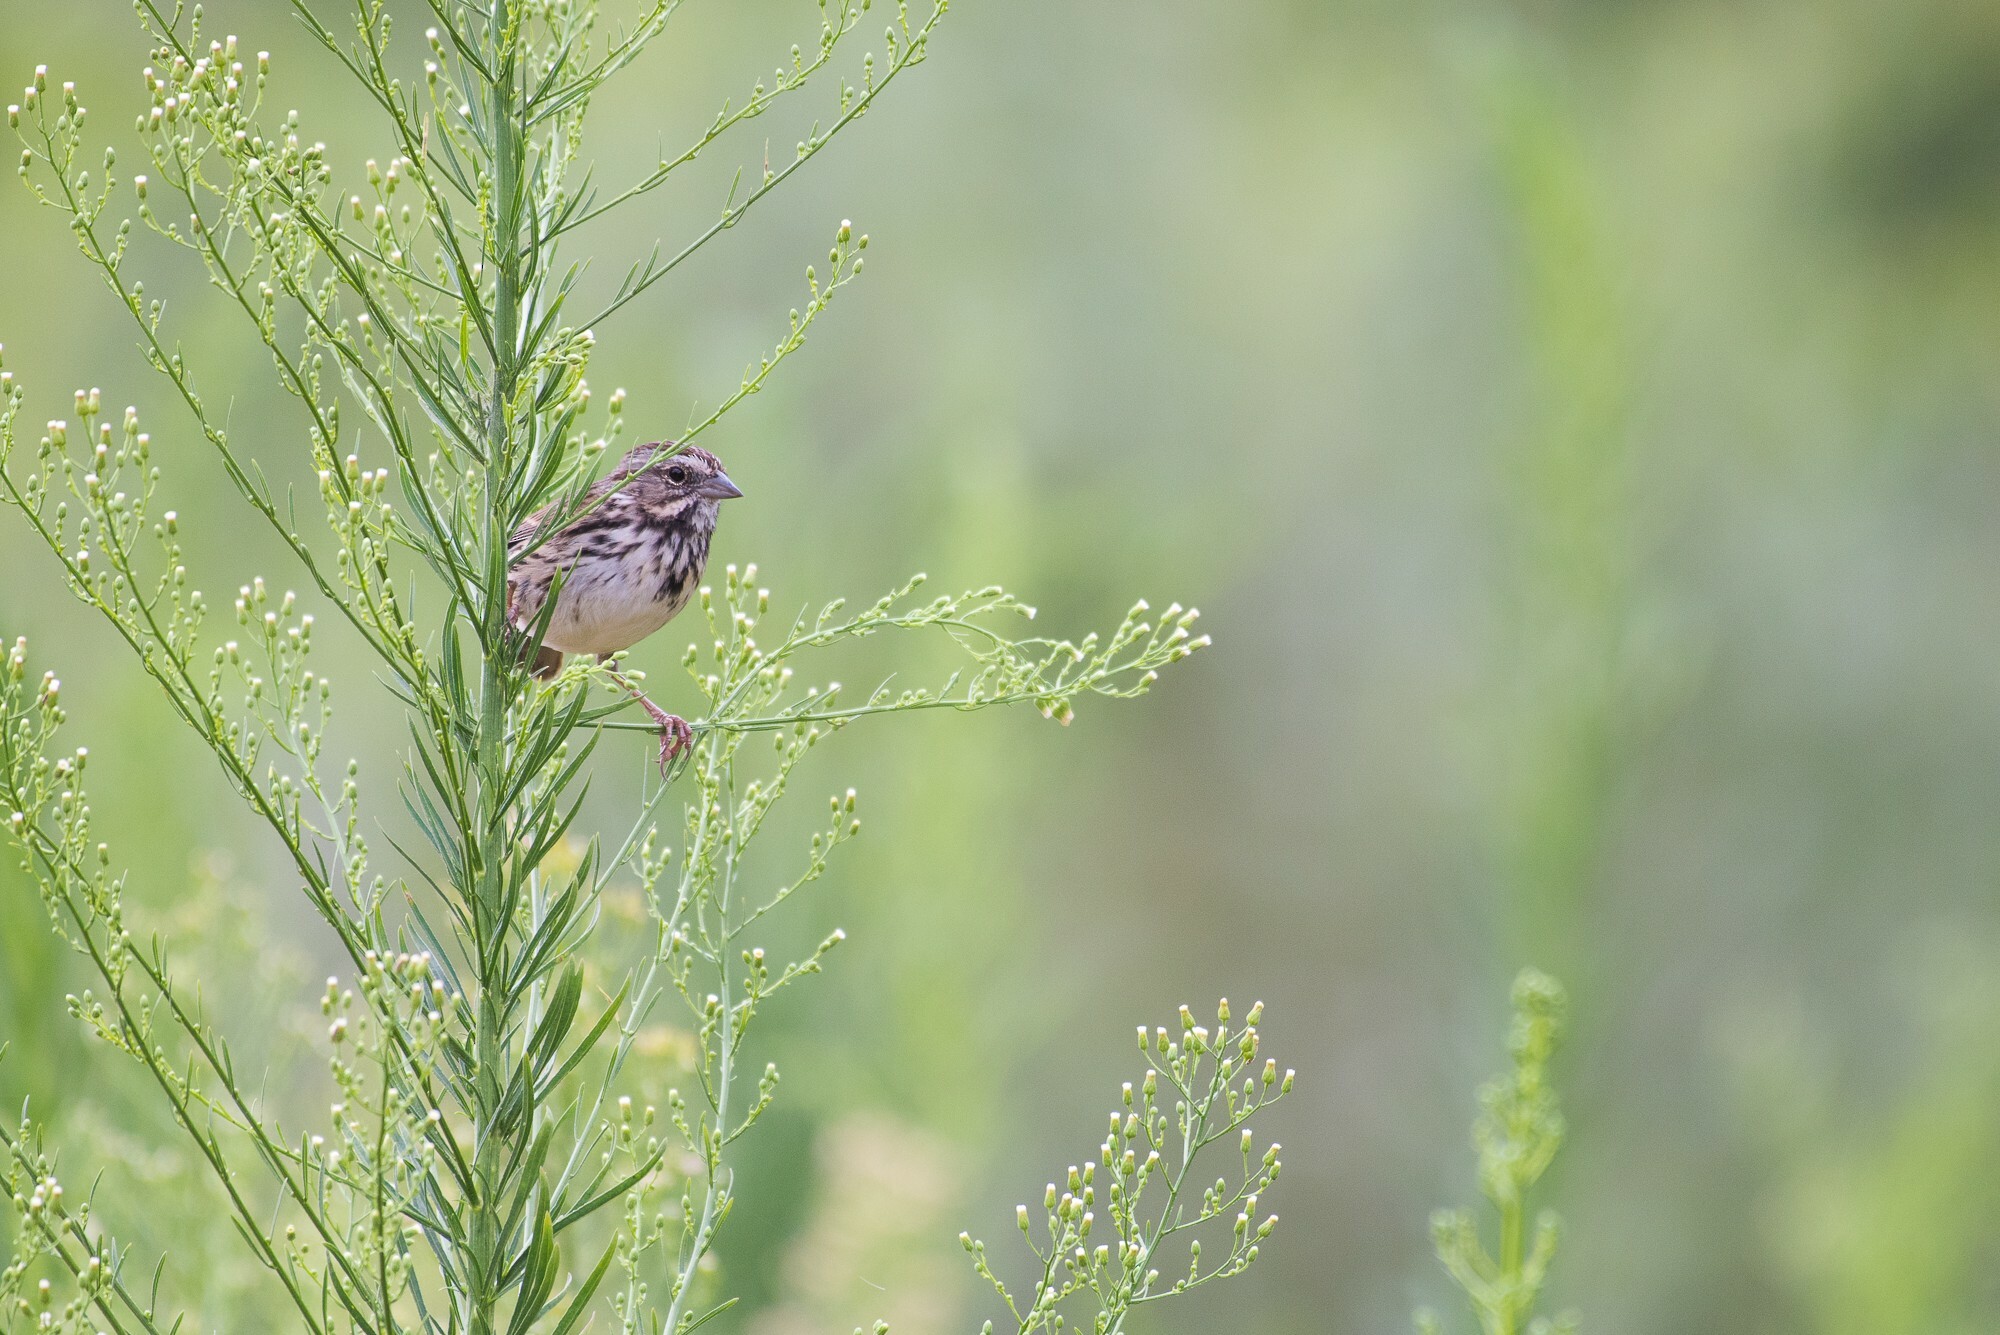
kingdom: Animalia
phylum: Chordata
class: Aves
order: Passeriformes
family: Passerellidae
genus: Melospiza
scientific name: Melospiza melodia
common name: Song sparrow
